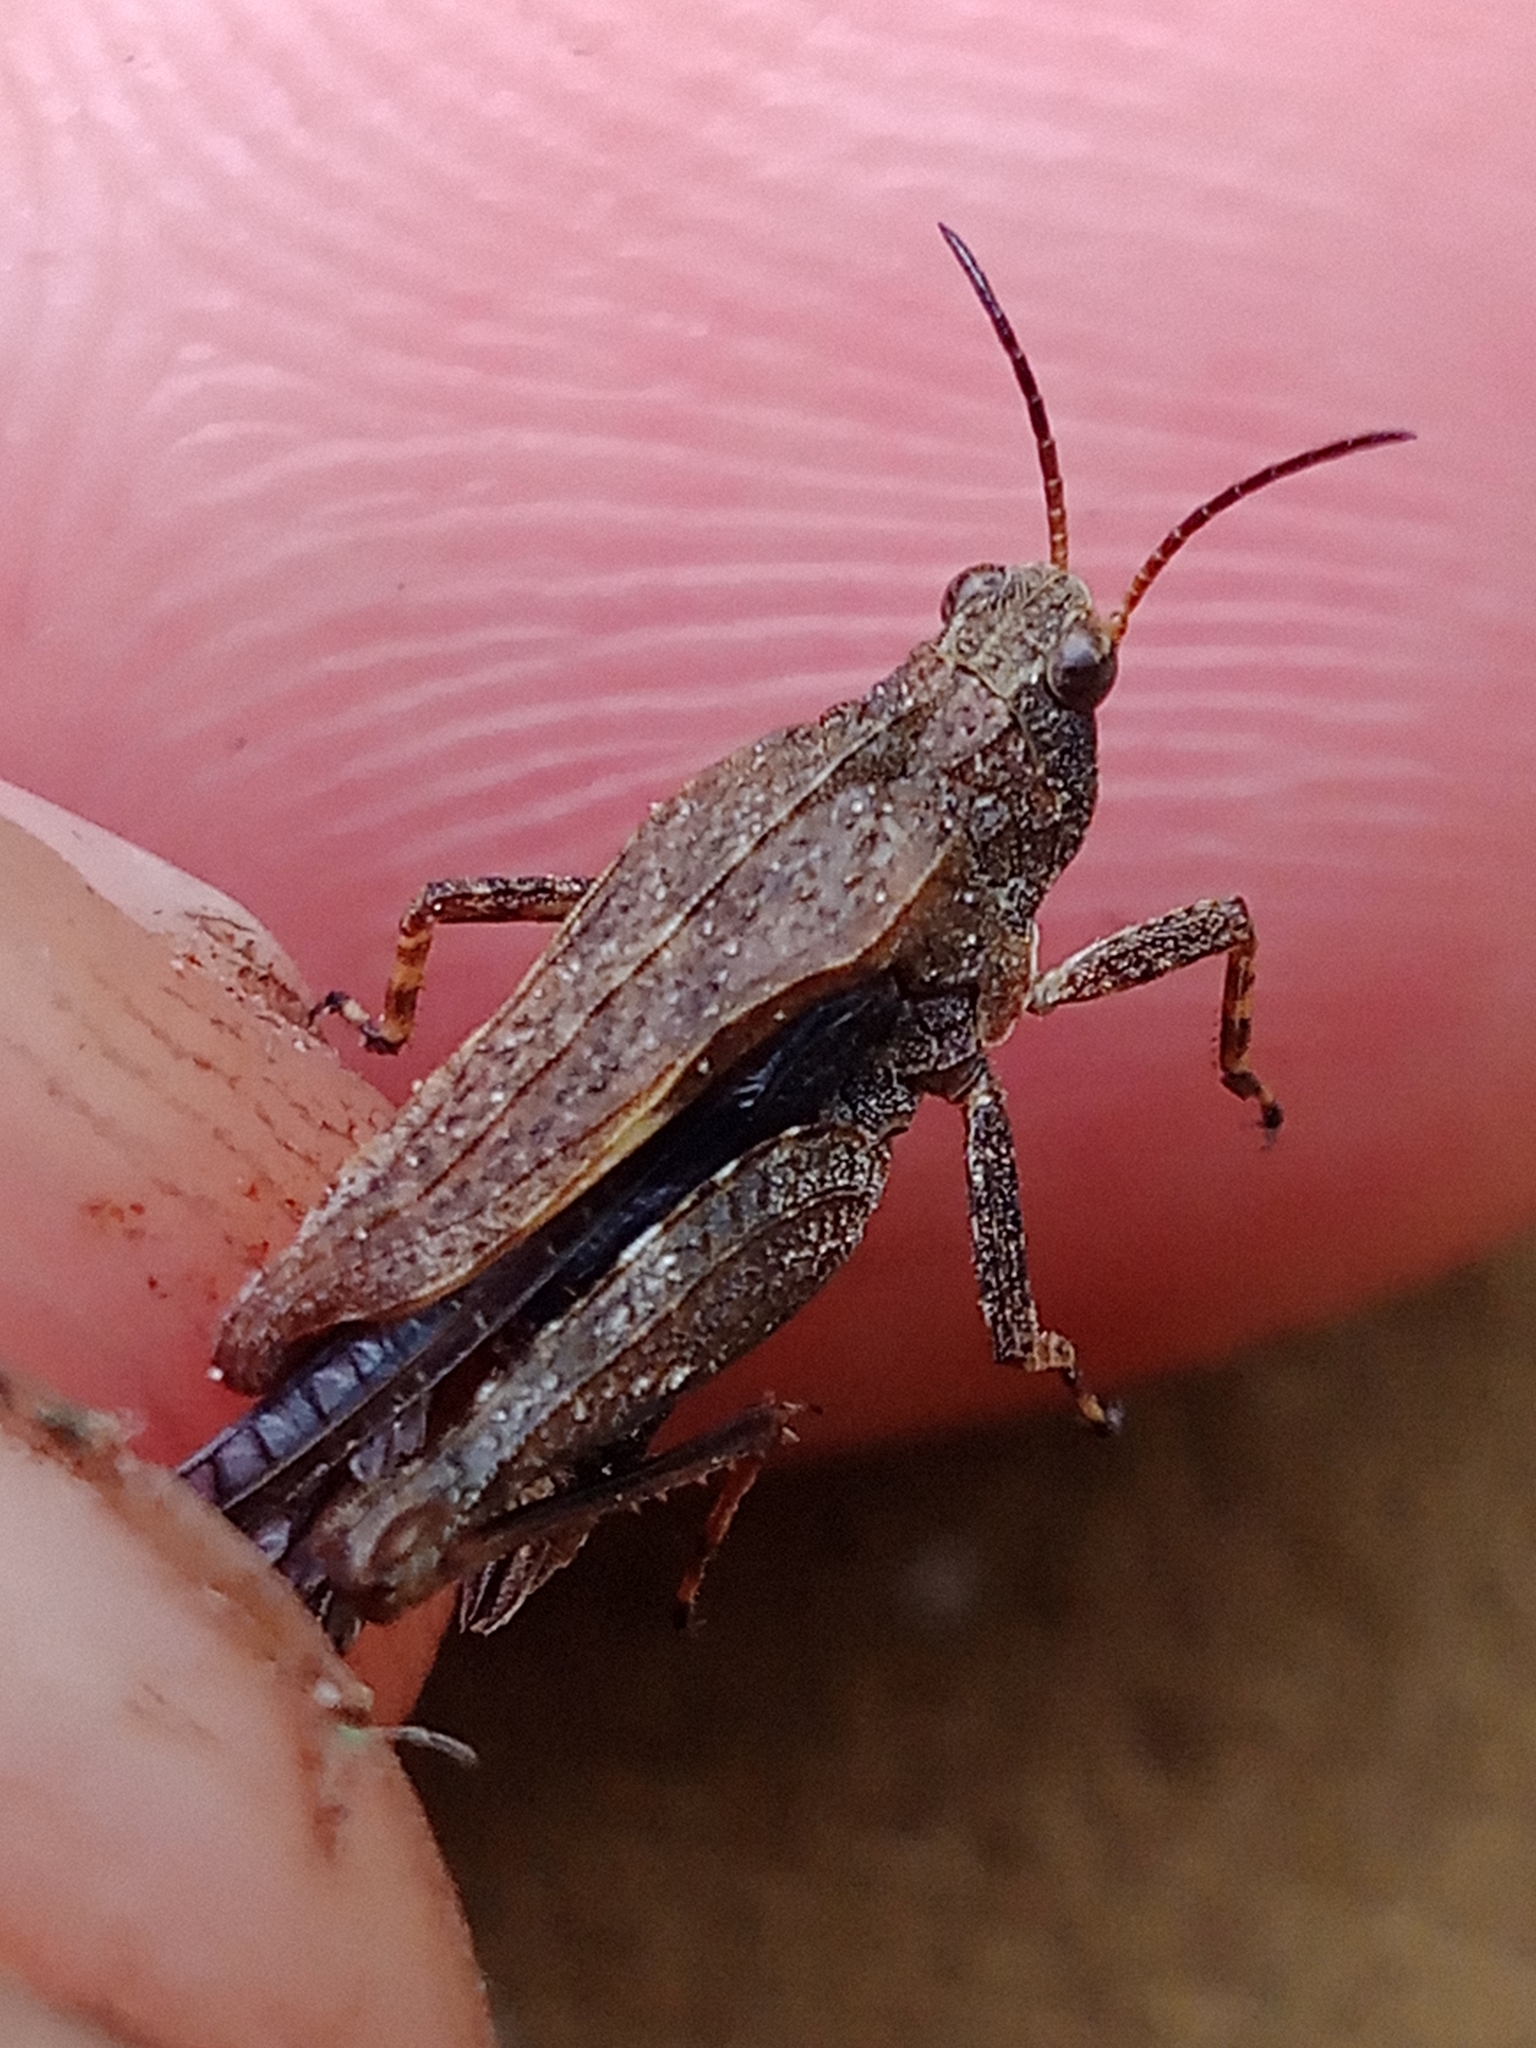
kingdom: Animalia
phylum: Arthropoda
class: Insecta
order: Orthoptera
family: Tetrigidae
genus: Tetrix
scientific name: Tetrix subulata
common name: Slender ground-hopper
